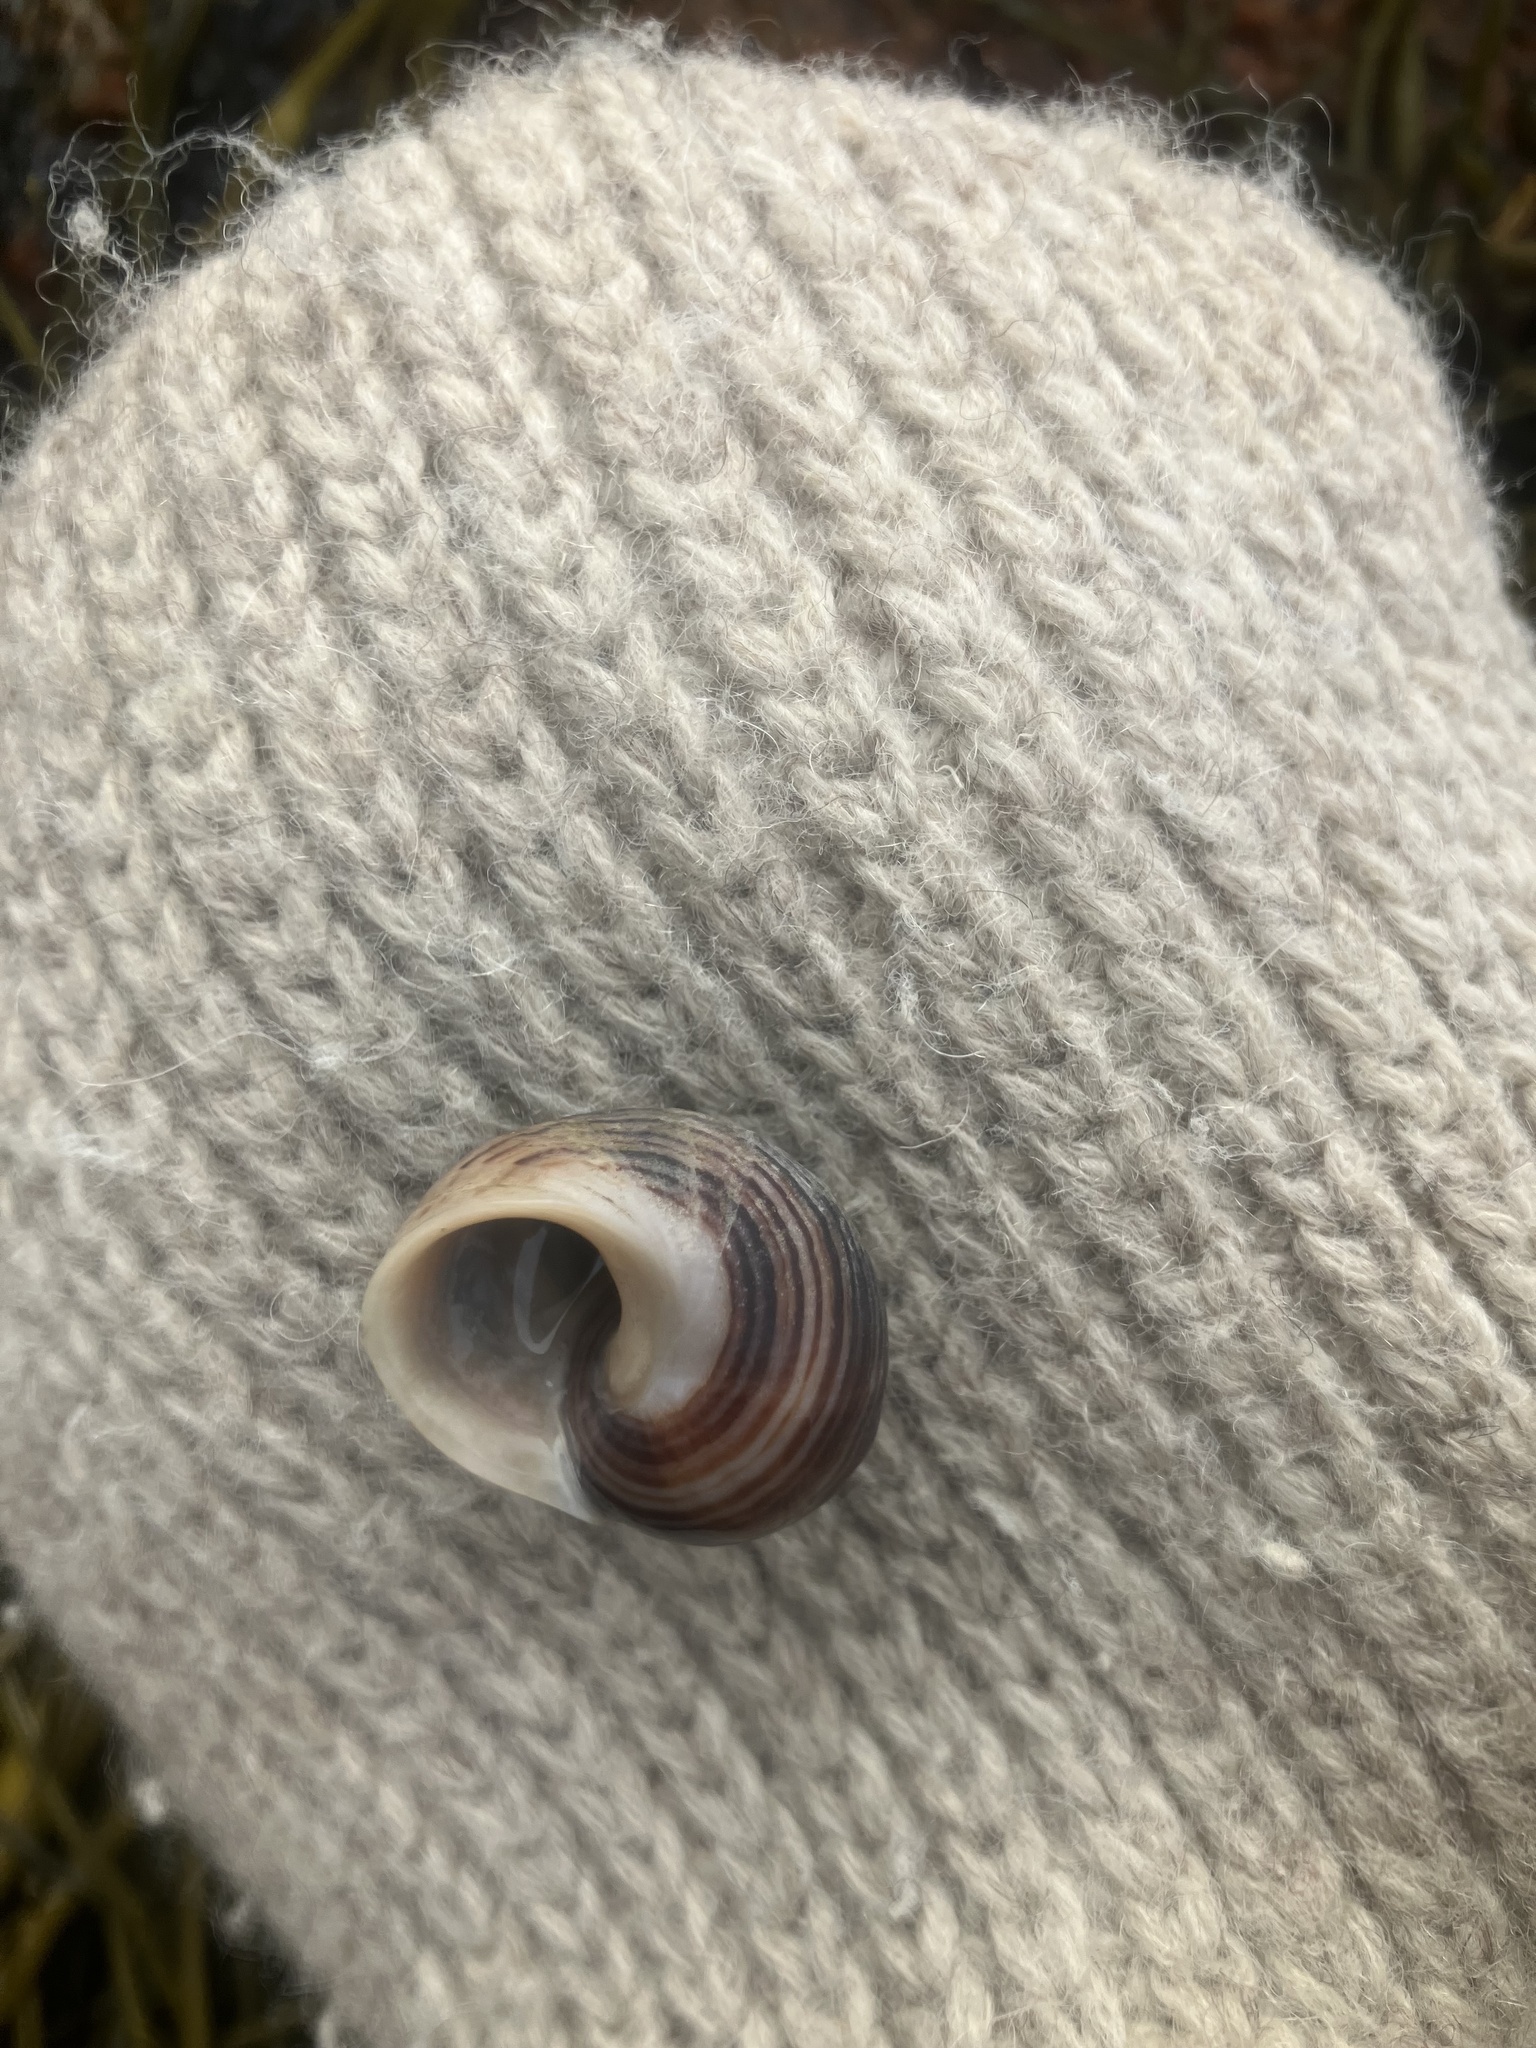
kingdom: Animalia
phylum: Mollusca
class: Gastropoda
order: Littorinimorpha
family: Littorinidae
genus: Littorina
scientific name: Littorina littorea
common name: Common periwinkle
